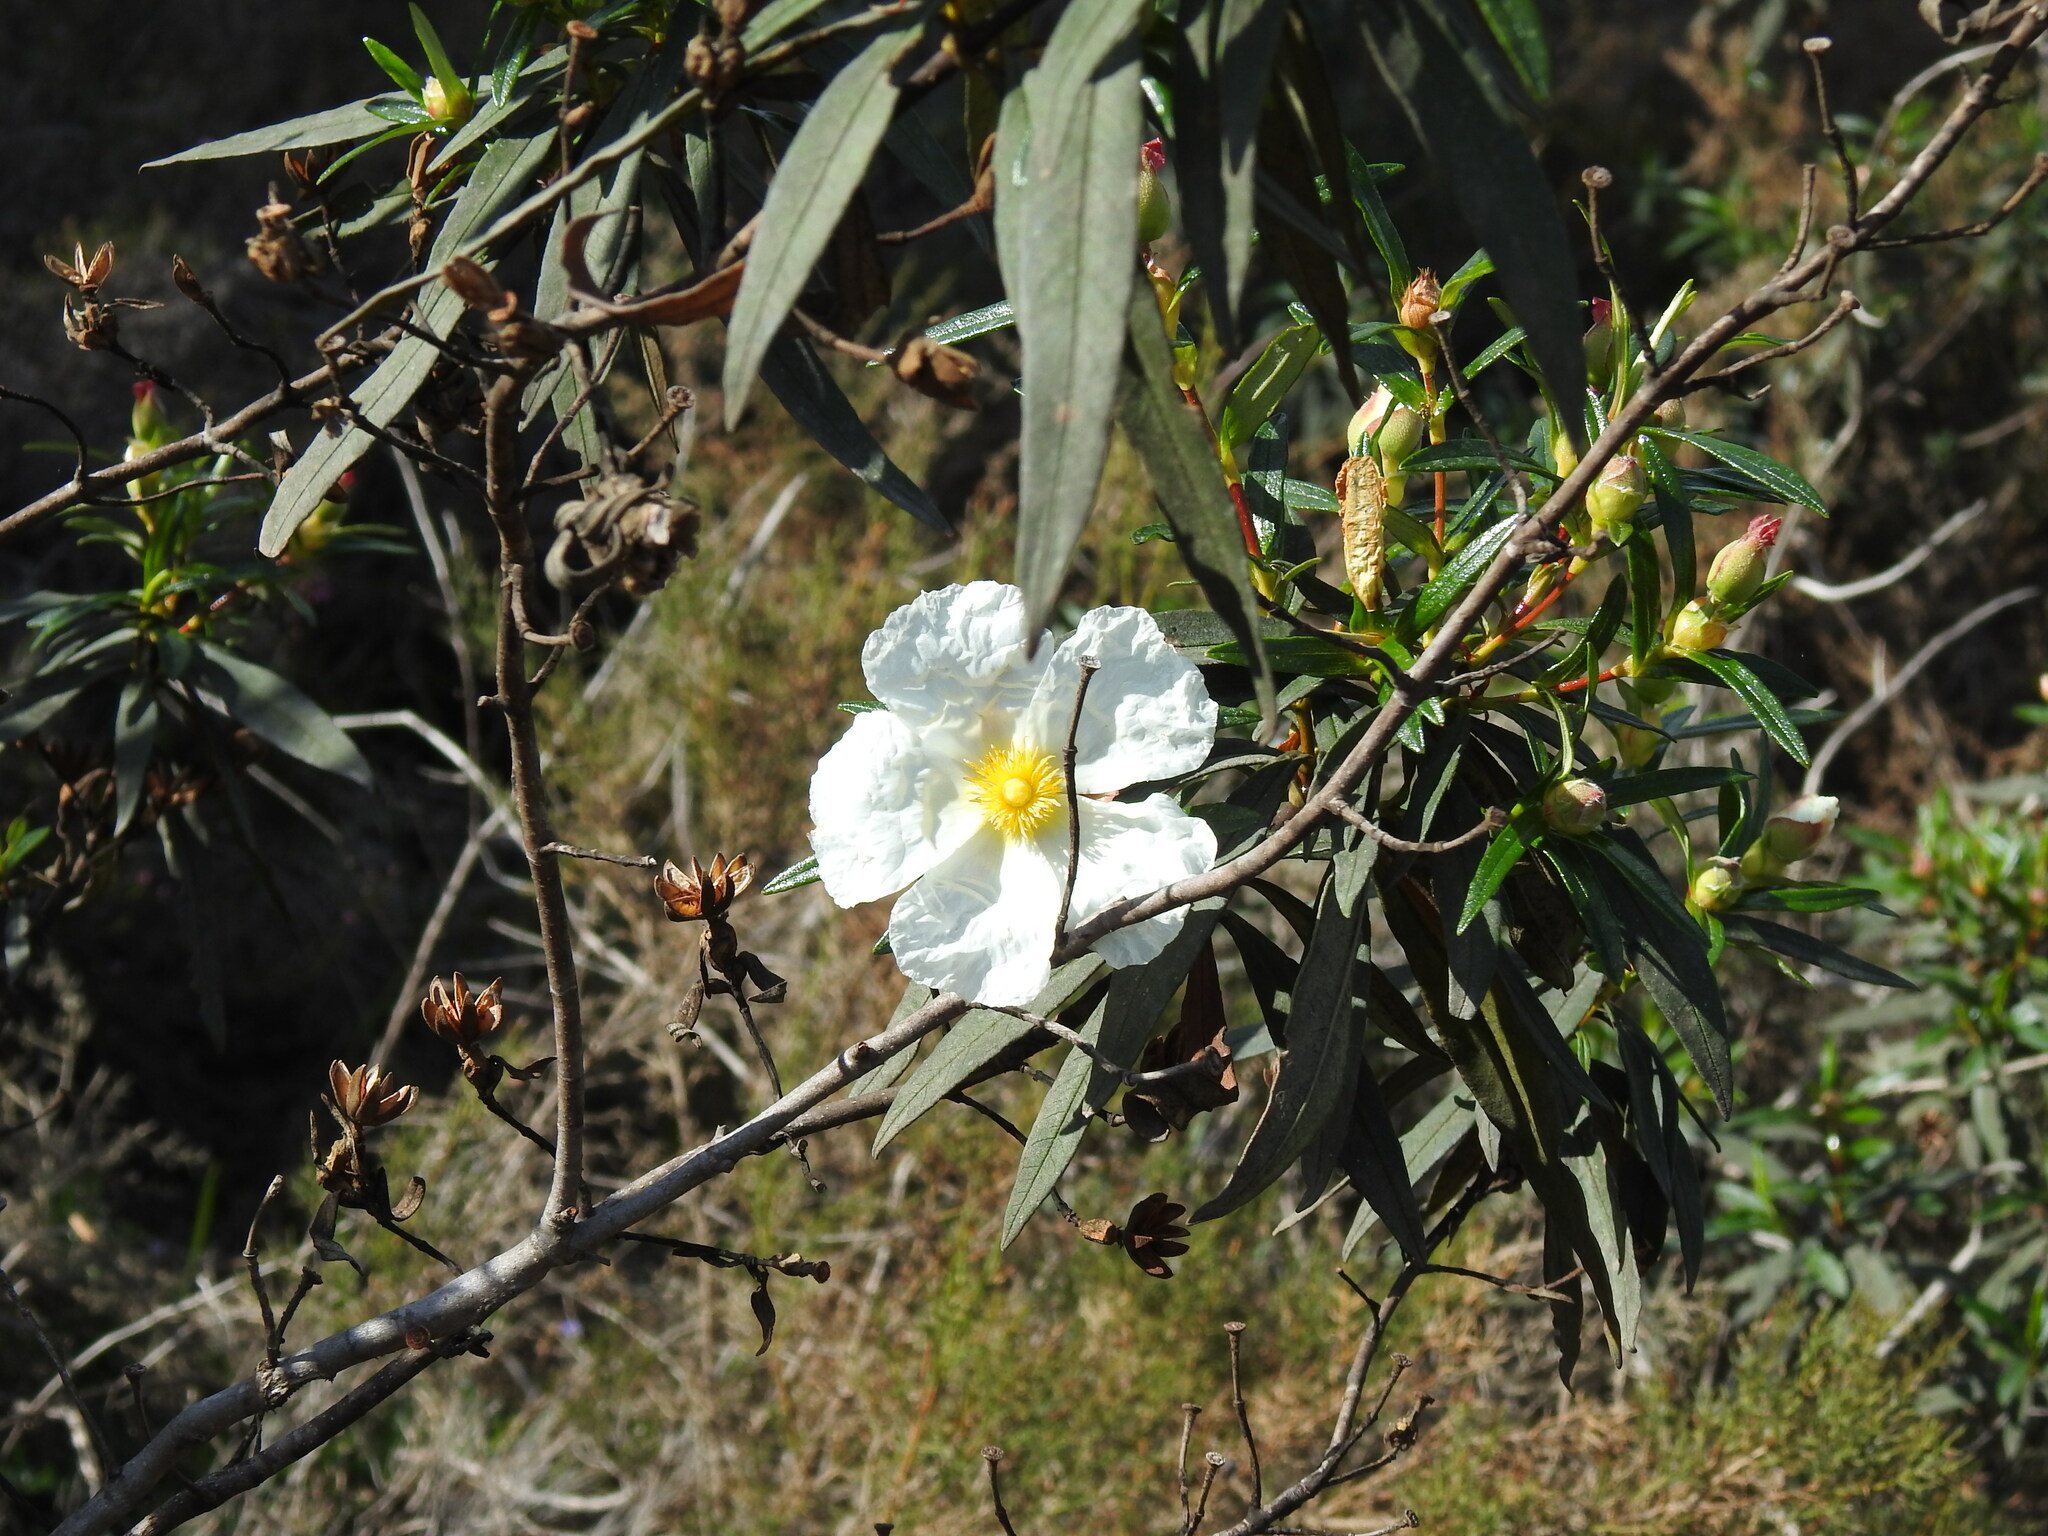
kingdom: Plantae
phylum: Tracheophyta
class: Magnoliopsida
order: Malvales
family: Cistaceae
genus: Cistus
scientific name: Cistus ladanifer
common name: Common gum cistus
